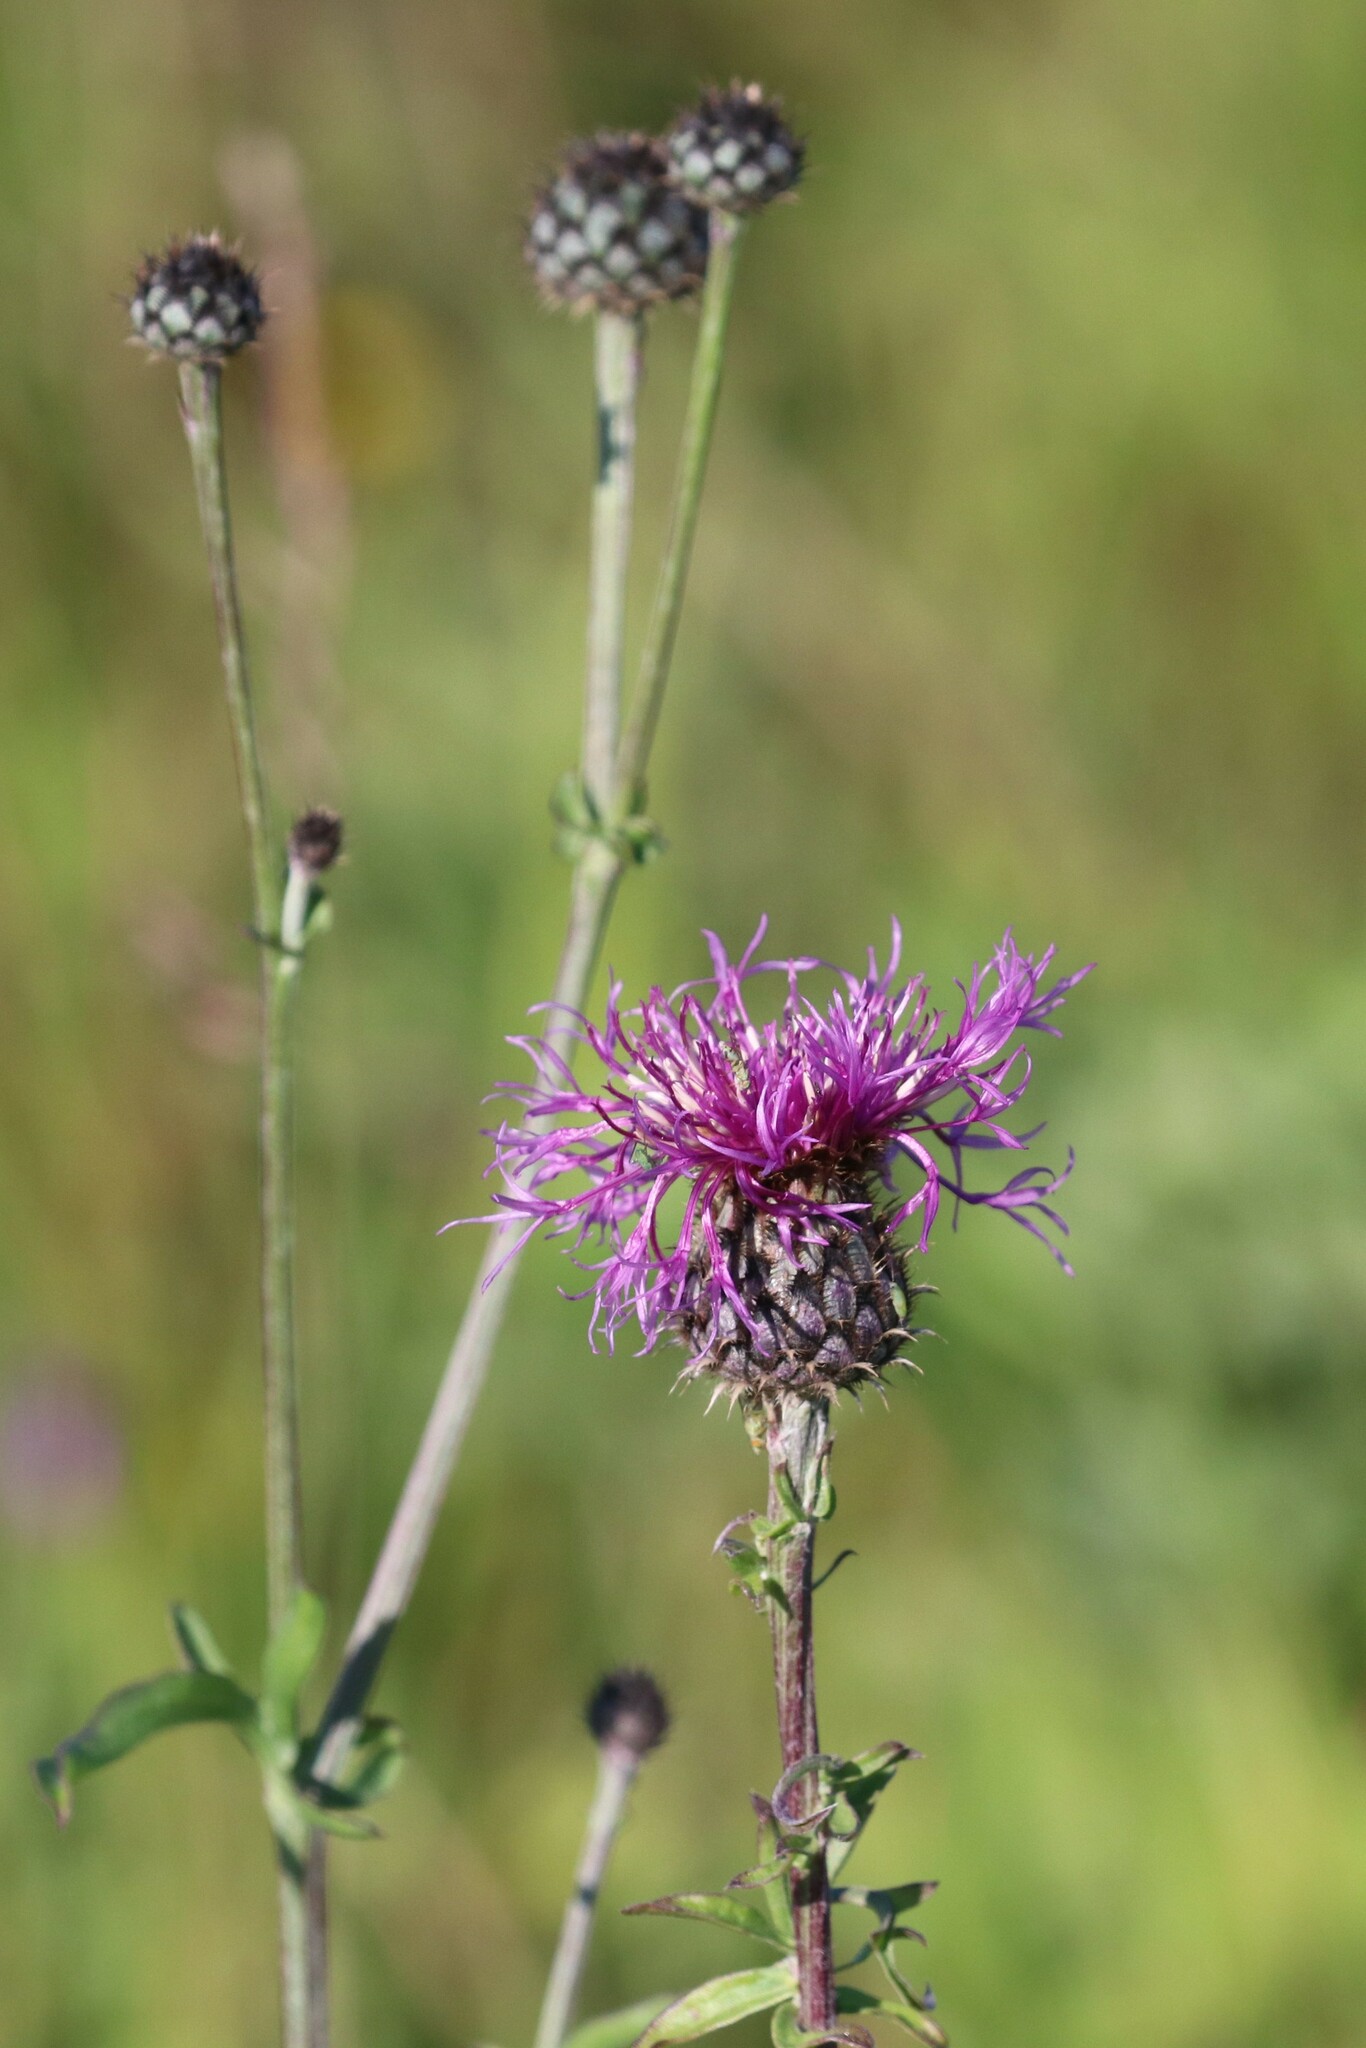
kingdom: Plantae
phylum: Tracheophyta
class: Magnoliopsida
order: Asterales
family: Asteraceae
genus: Centaurea
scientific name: Centaurea scabiosa
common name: Greater knapweed
